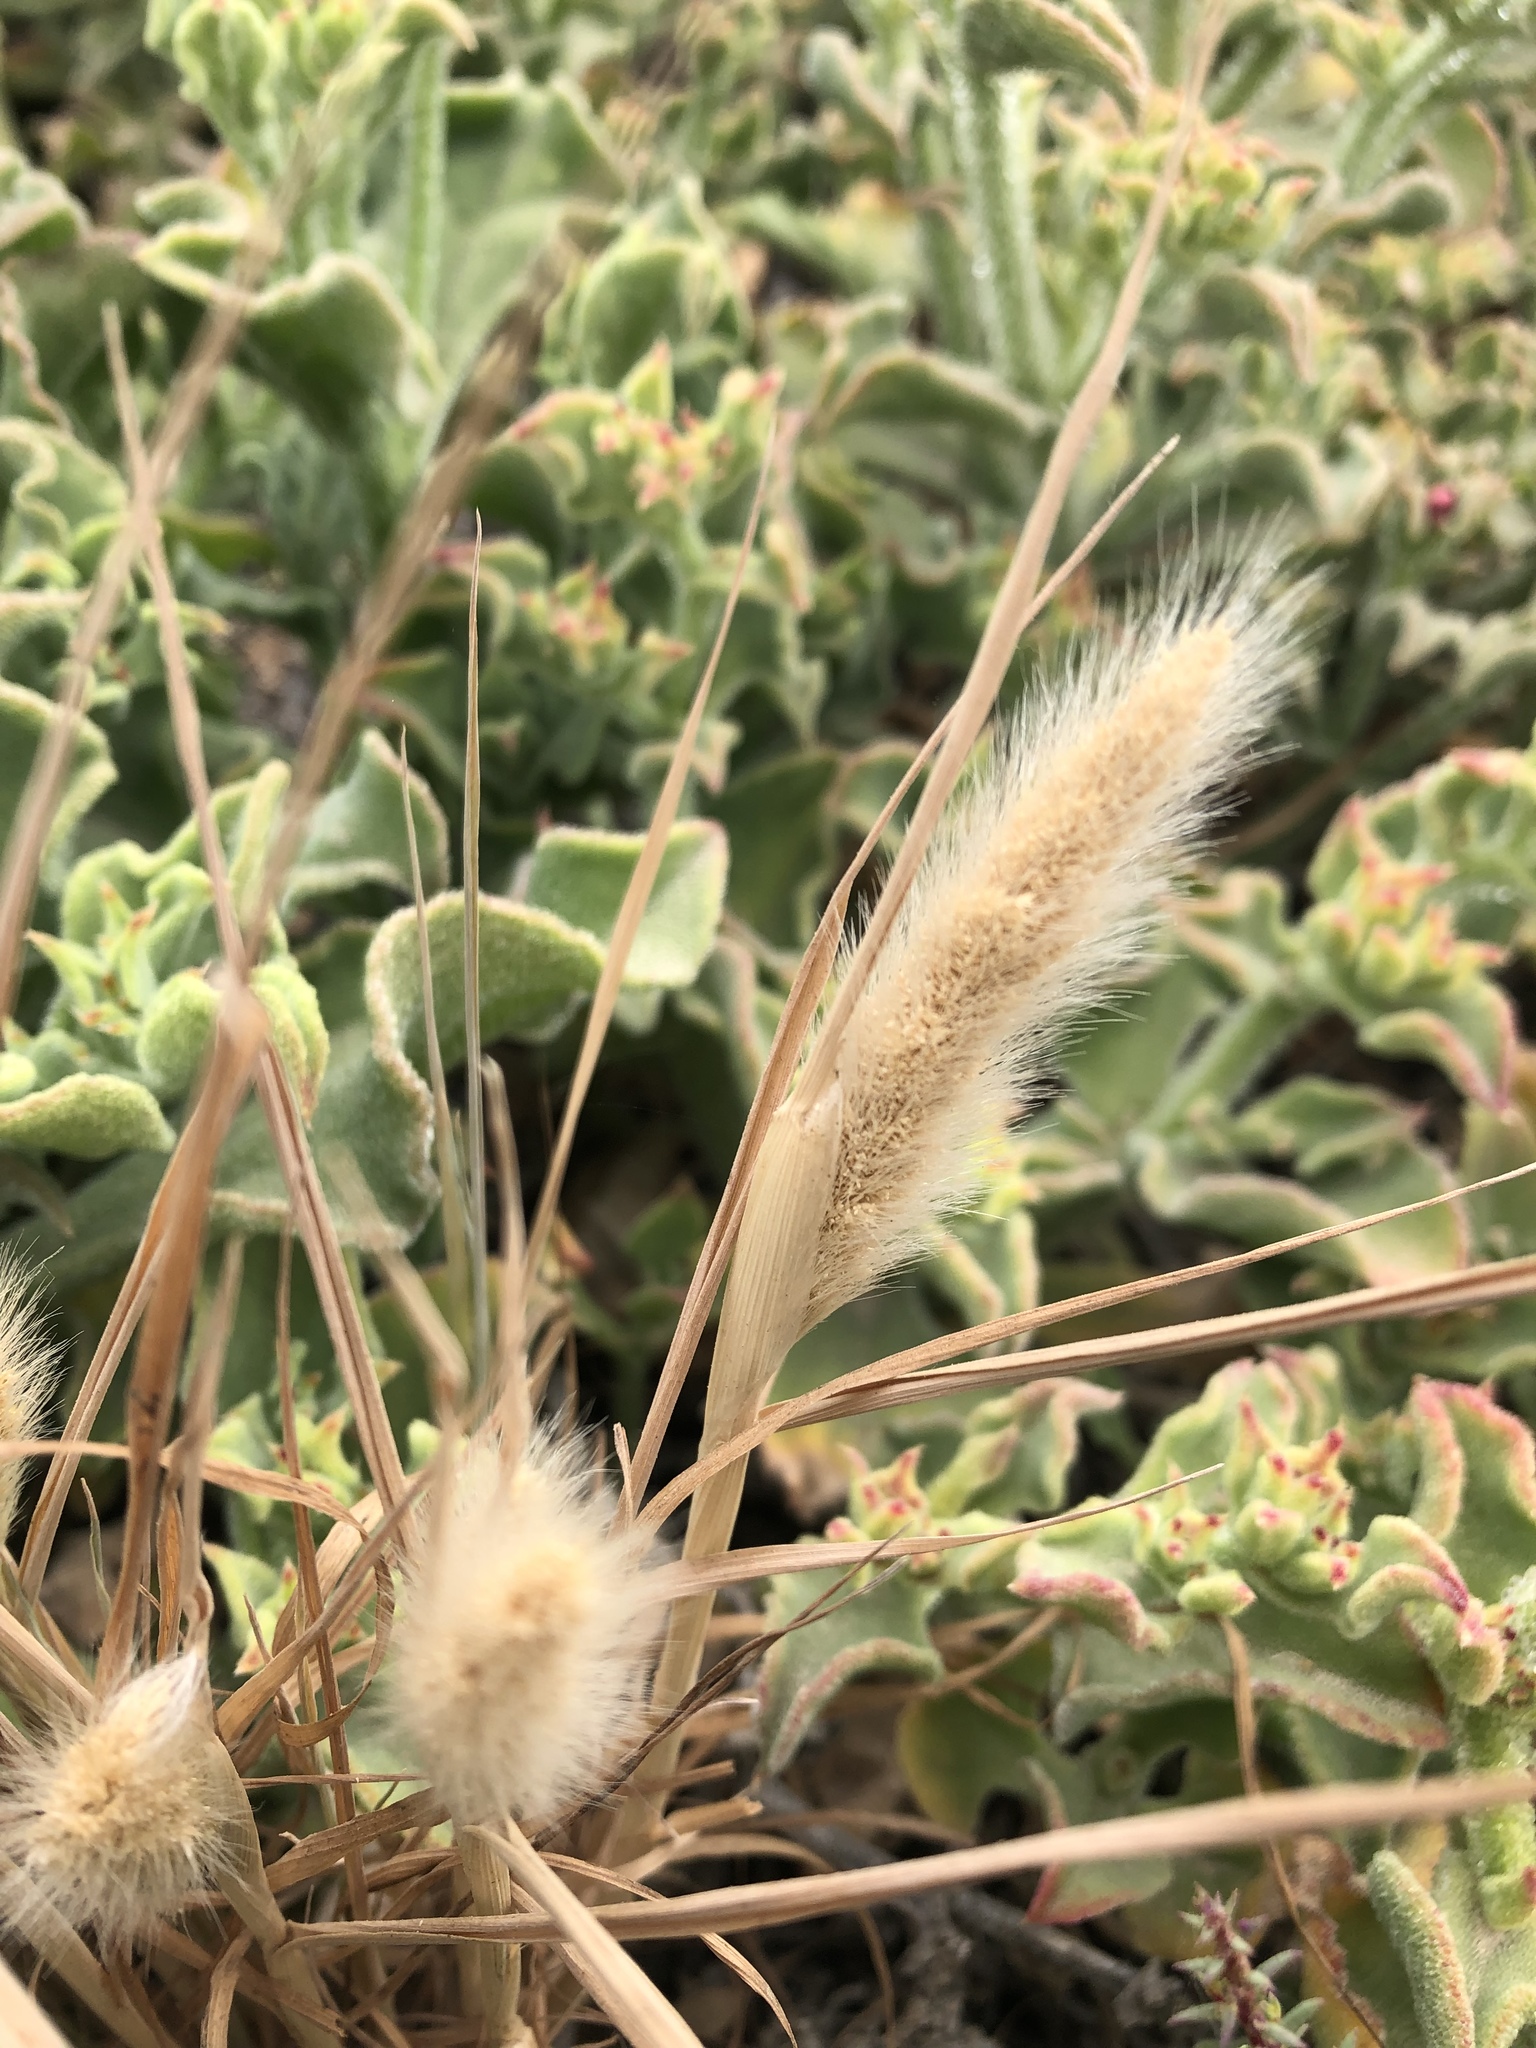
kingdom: Plantae
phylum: Tracheophyta
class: Liliopsida
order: Poales
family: Poaceae
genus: Polypogon
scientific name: Polypogon monspeliensis
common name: Annual rabbitsfoot grass
